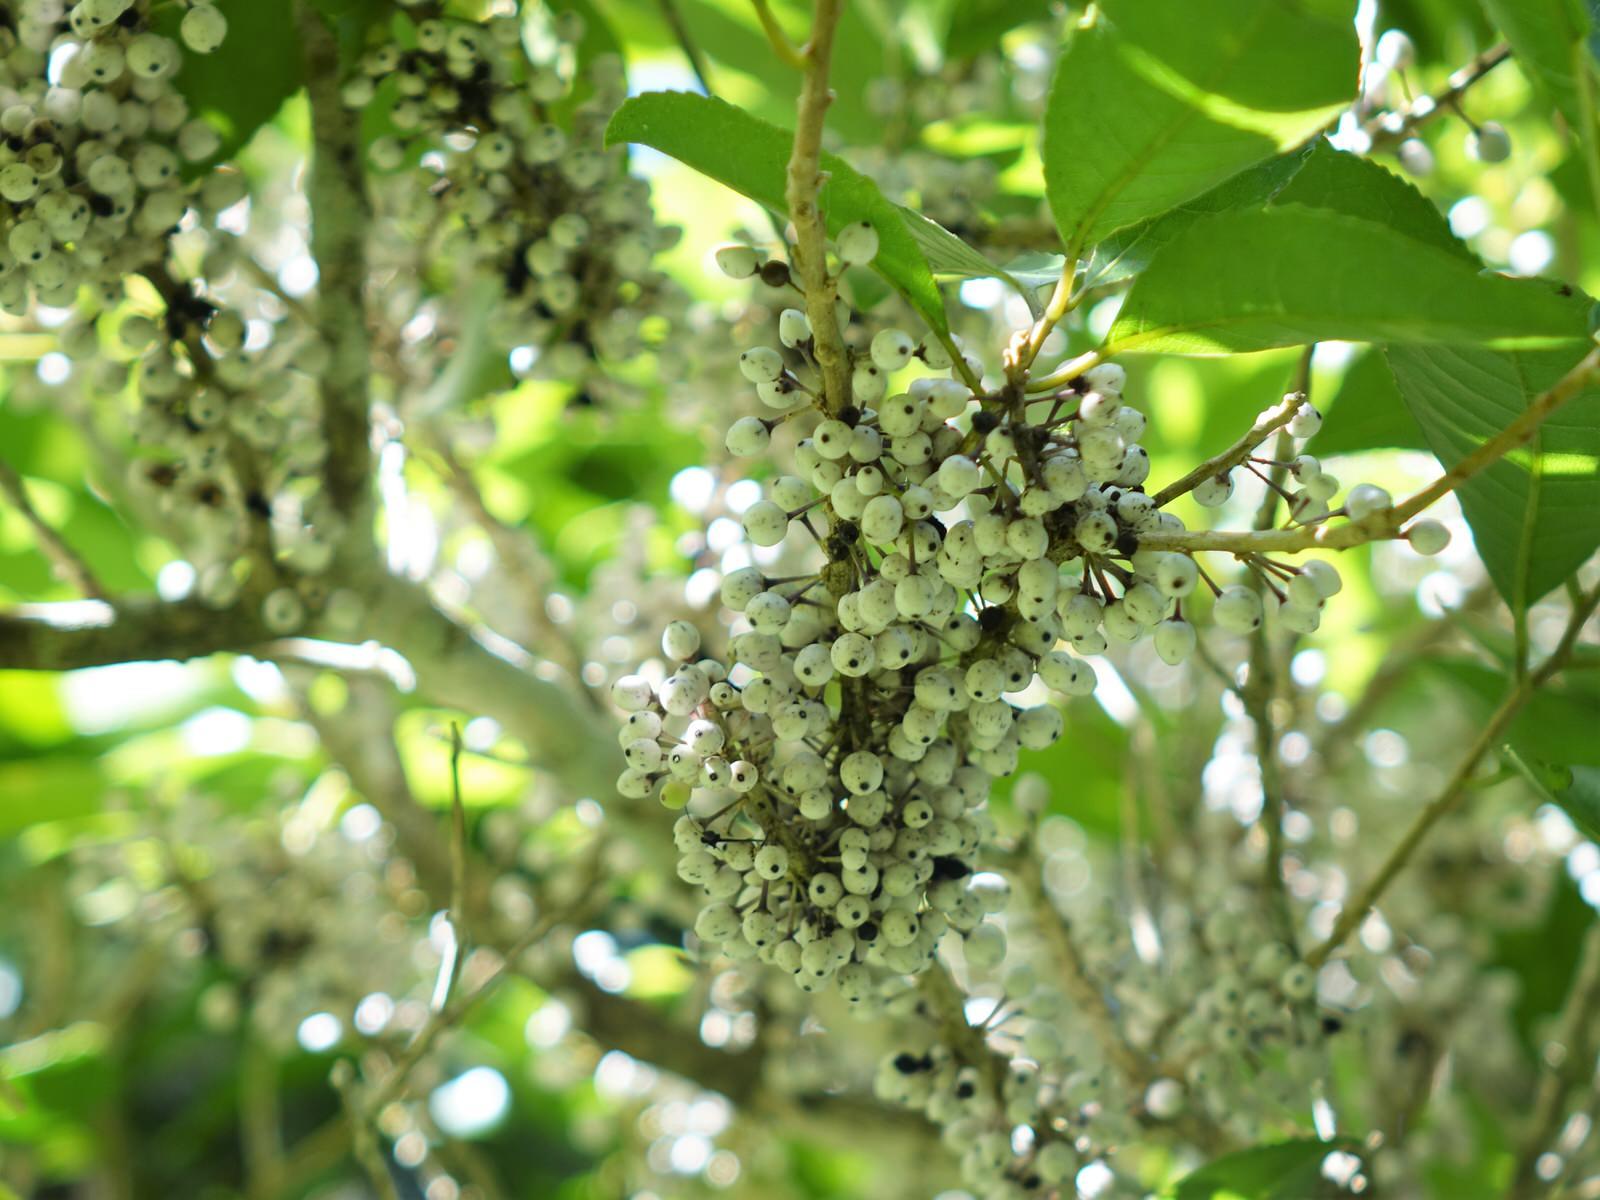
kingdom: Plantae
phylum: Tracheophyta
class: Magnoliopsida
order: Malpighiales
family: Violaceae
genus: Melicytus
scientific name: Melicytus ramiflorus
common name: Mahoe
